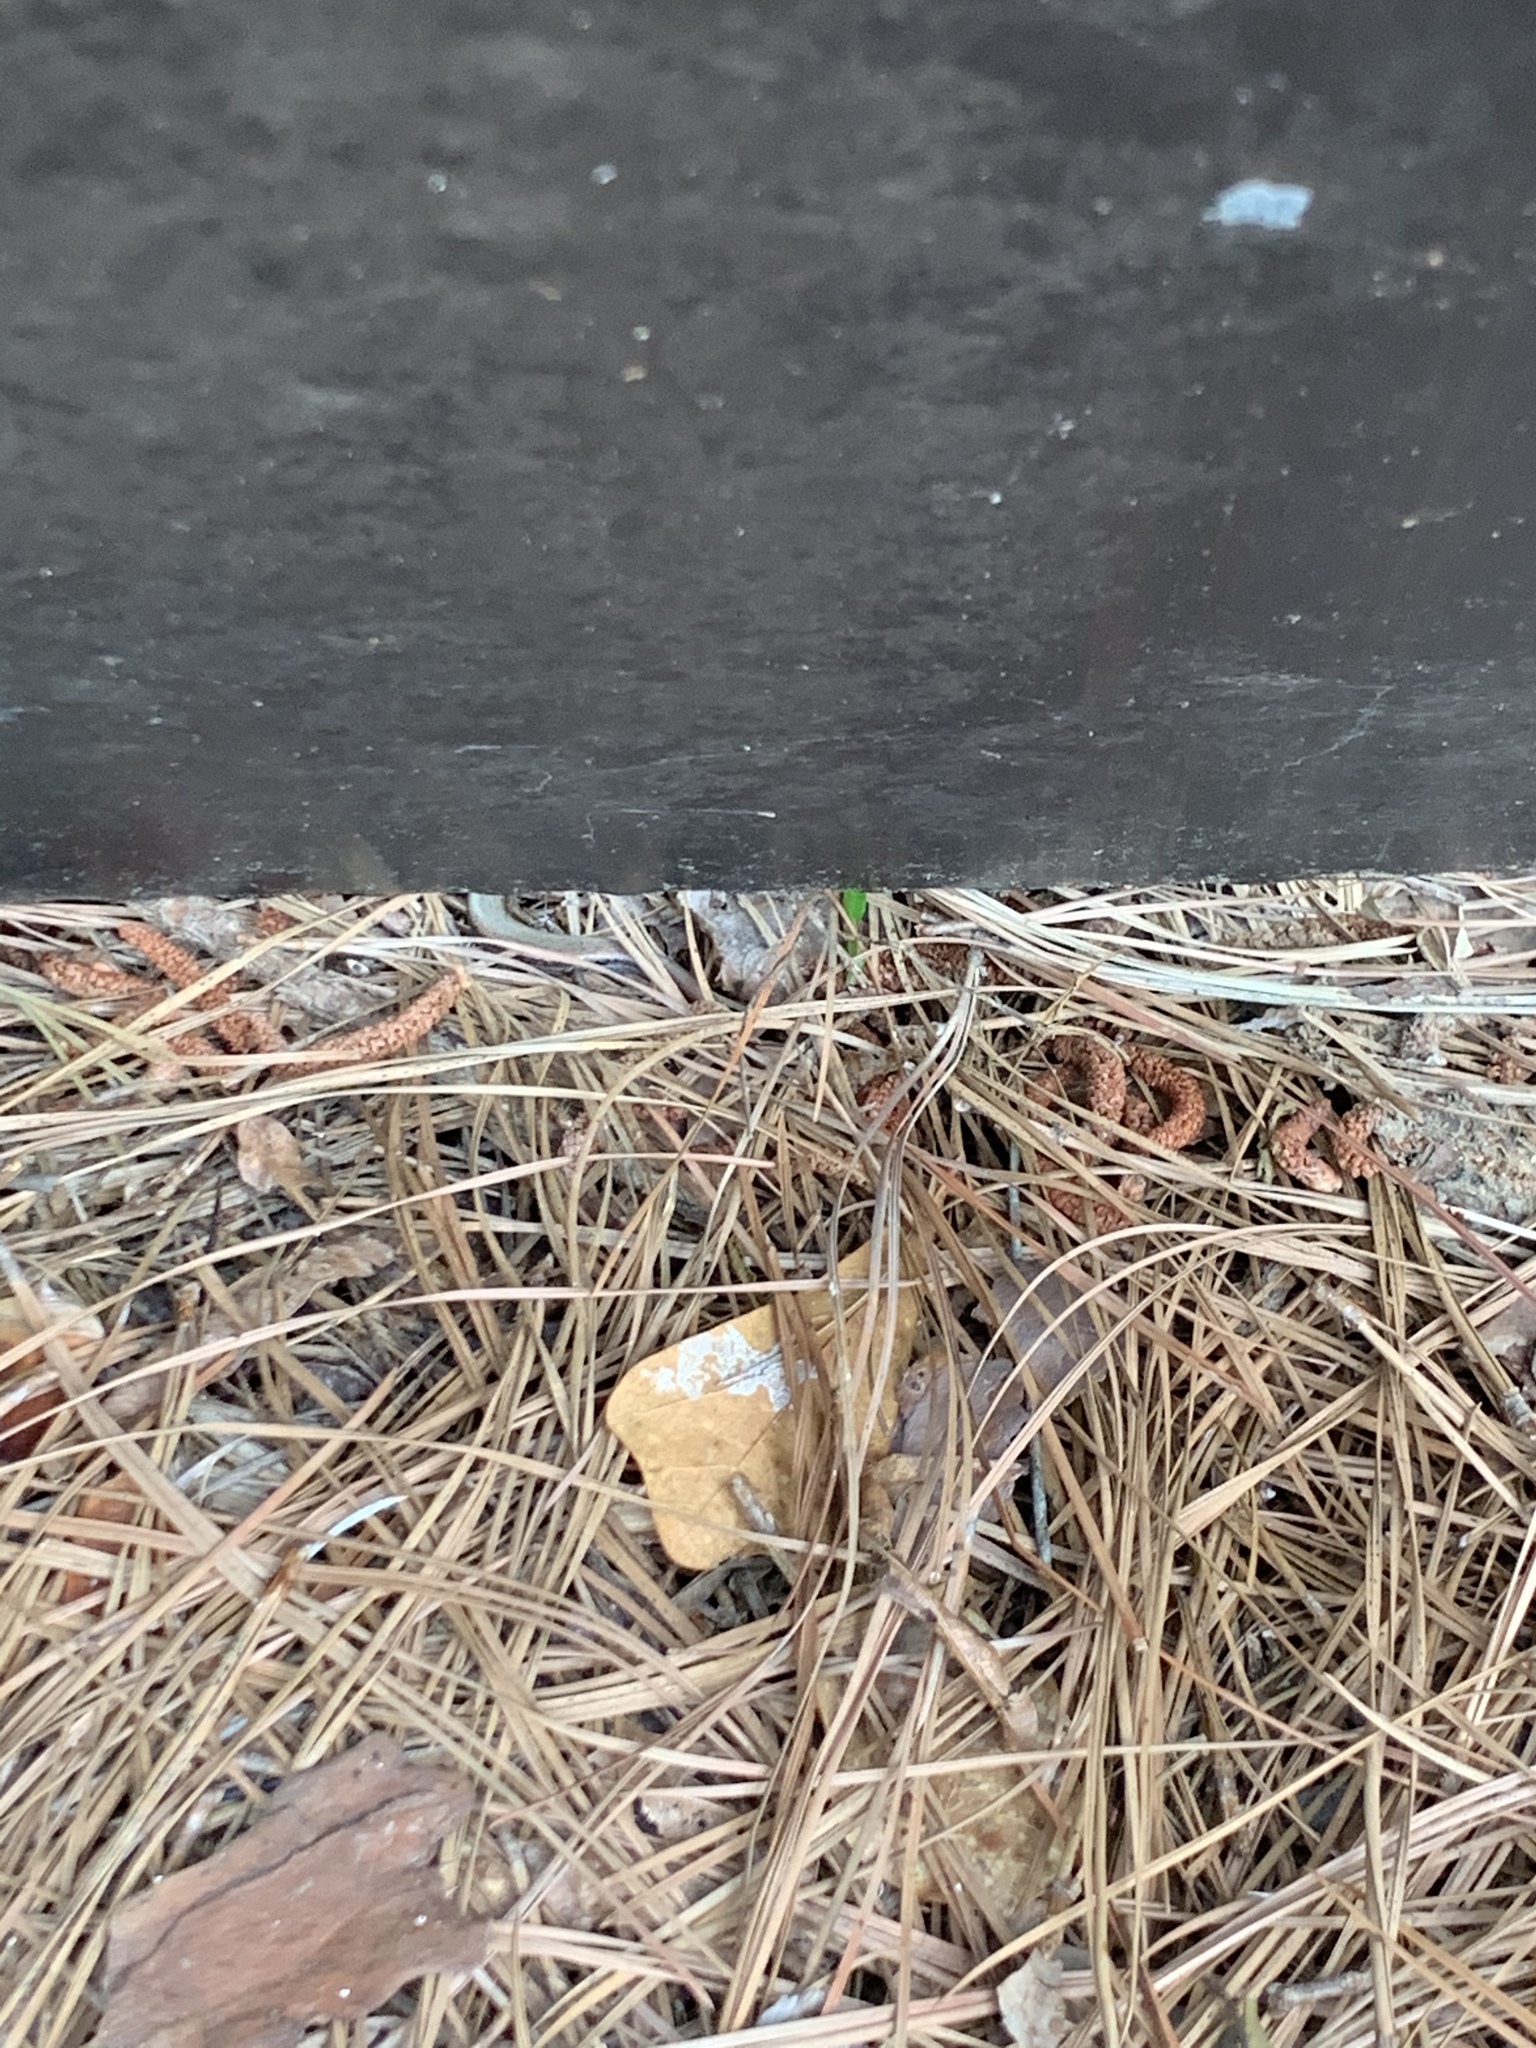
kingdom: Animalia
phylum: Chordata
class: Squamata
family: Scincidae
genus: Scincella
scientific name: Scincella lateralis
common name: Ground skink
